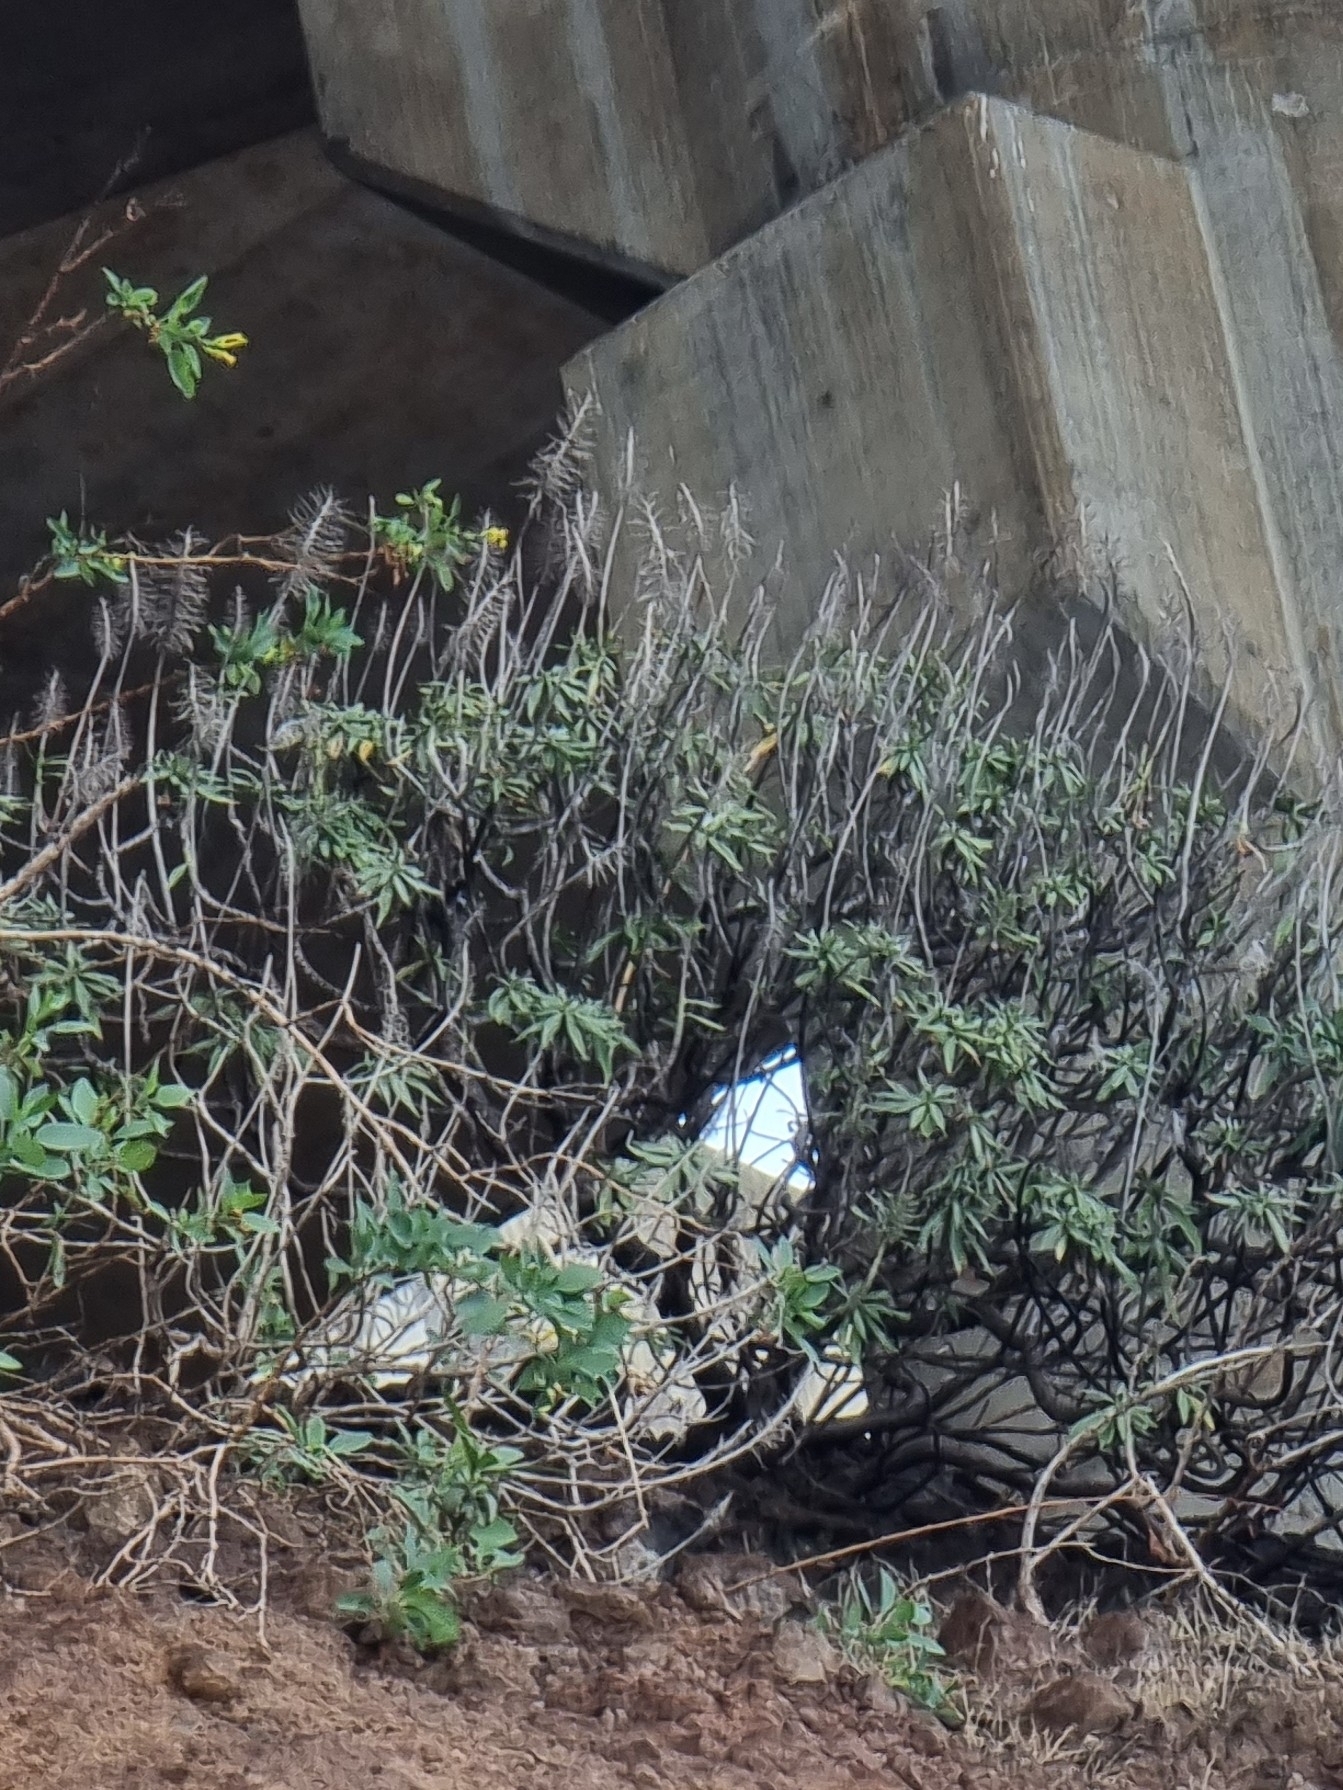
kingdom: Plantae
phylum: Tracheophyta
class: Magnoliopsida
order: Boraginales
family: Boraginaceae
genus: Echium
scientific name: Echium nervosum
